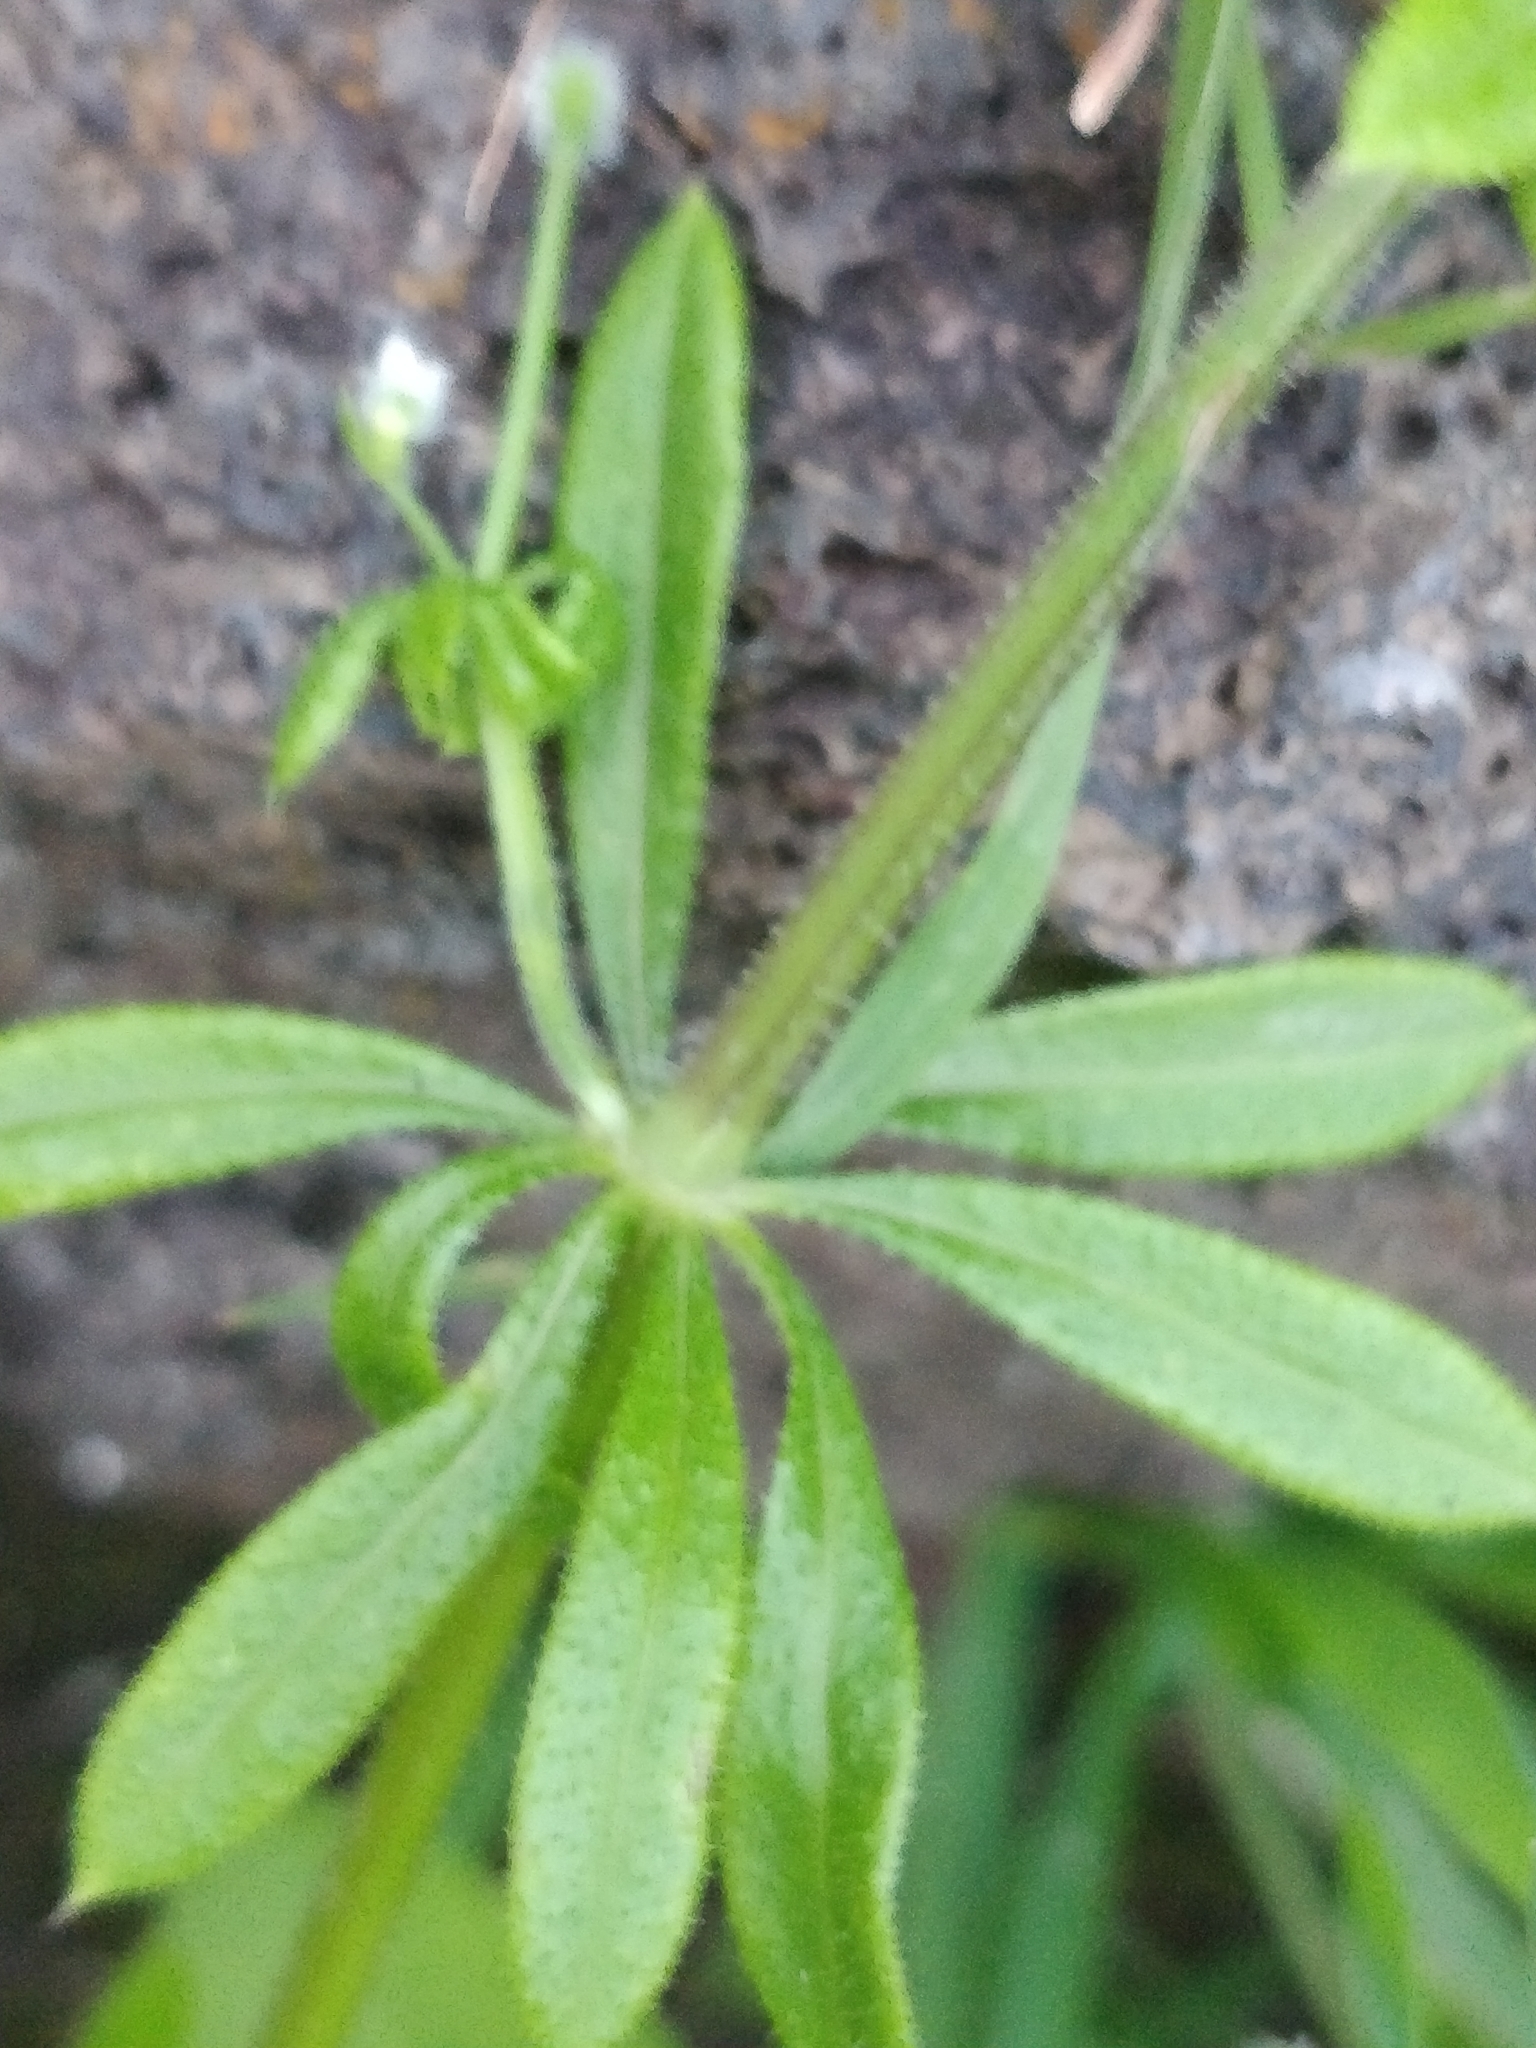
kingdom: Plantae
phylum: Tracheophyta
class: Magnoliopsida
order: Gentianales
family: Rubiaceae
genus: Galium
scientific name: Galium aparine
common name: Cleavers
